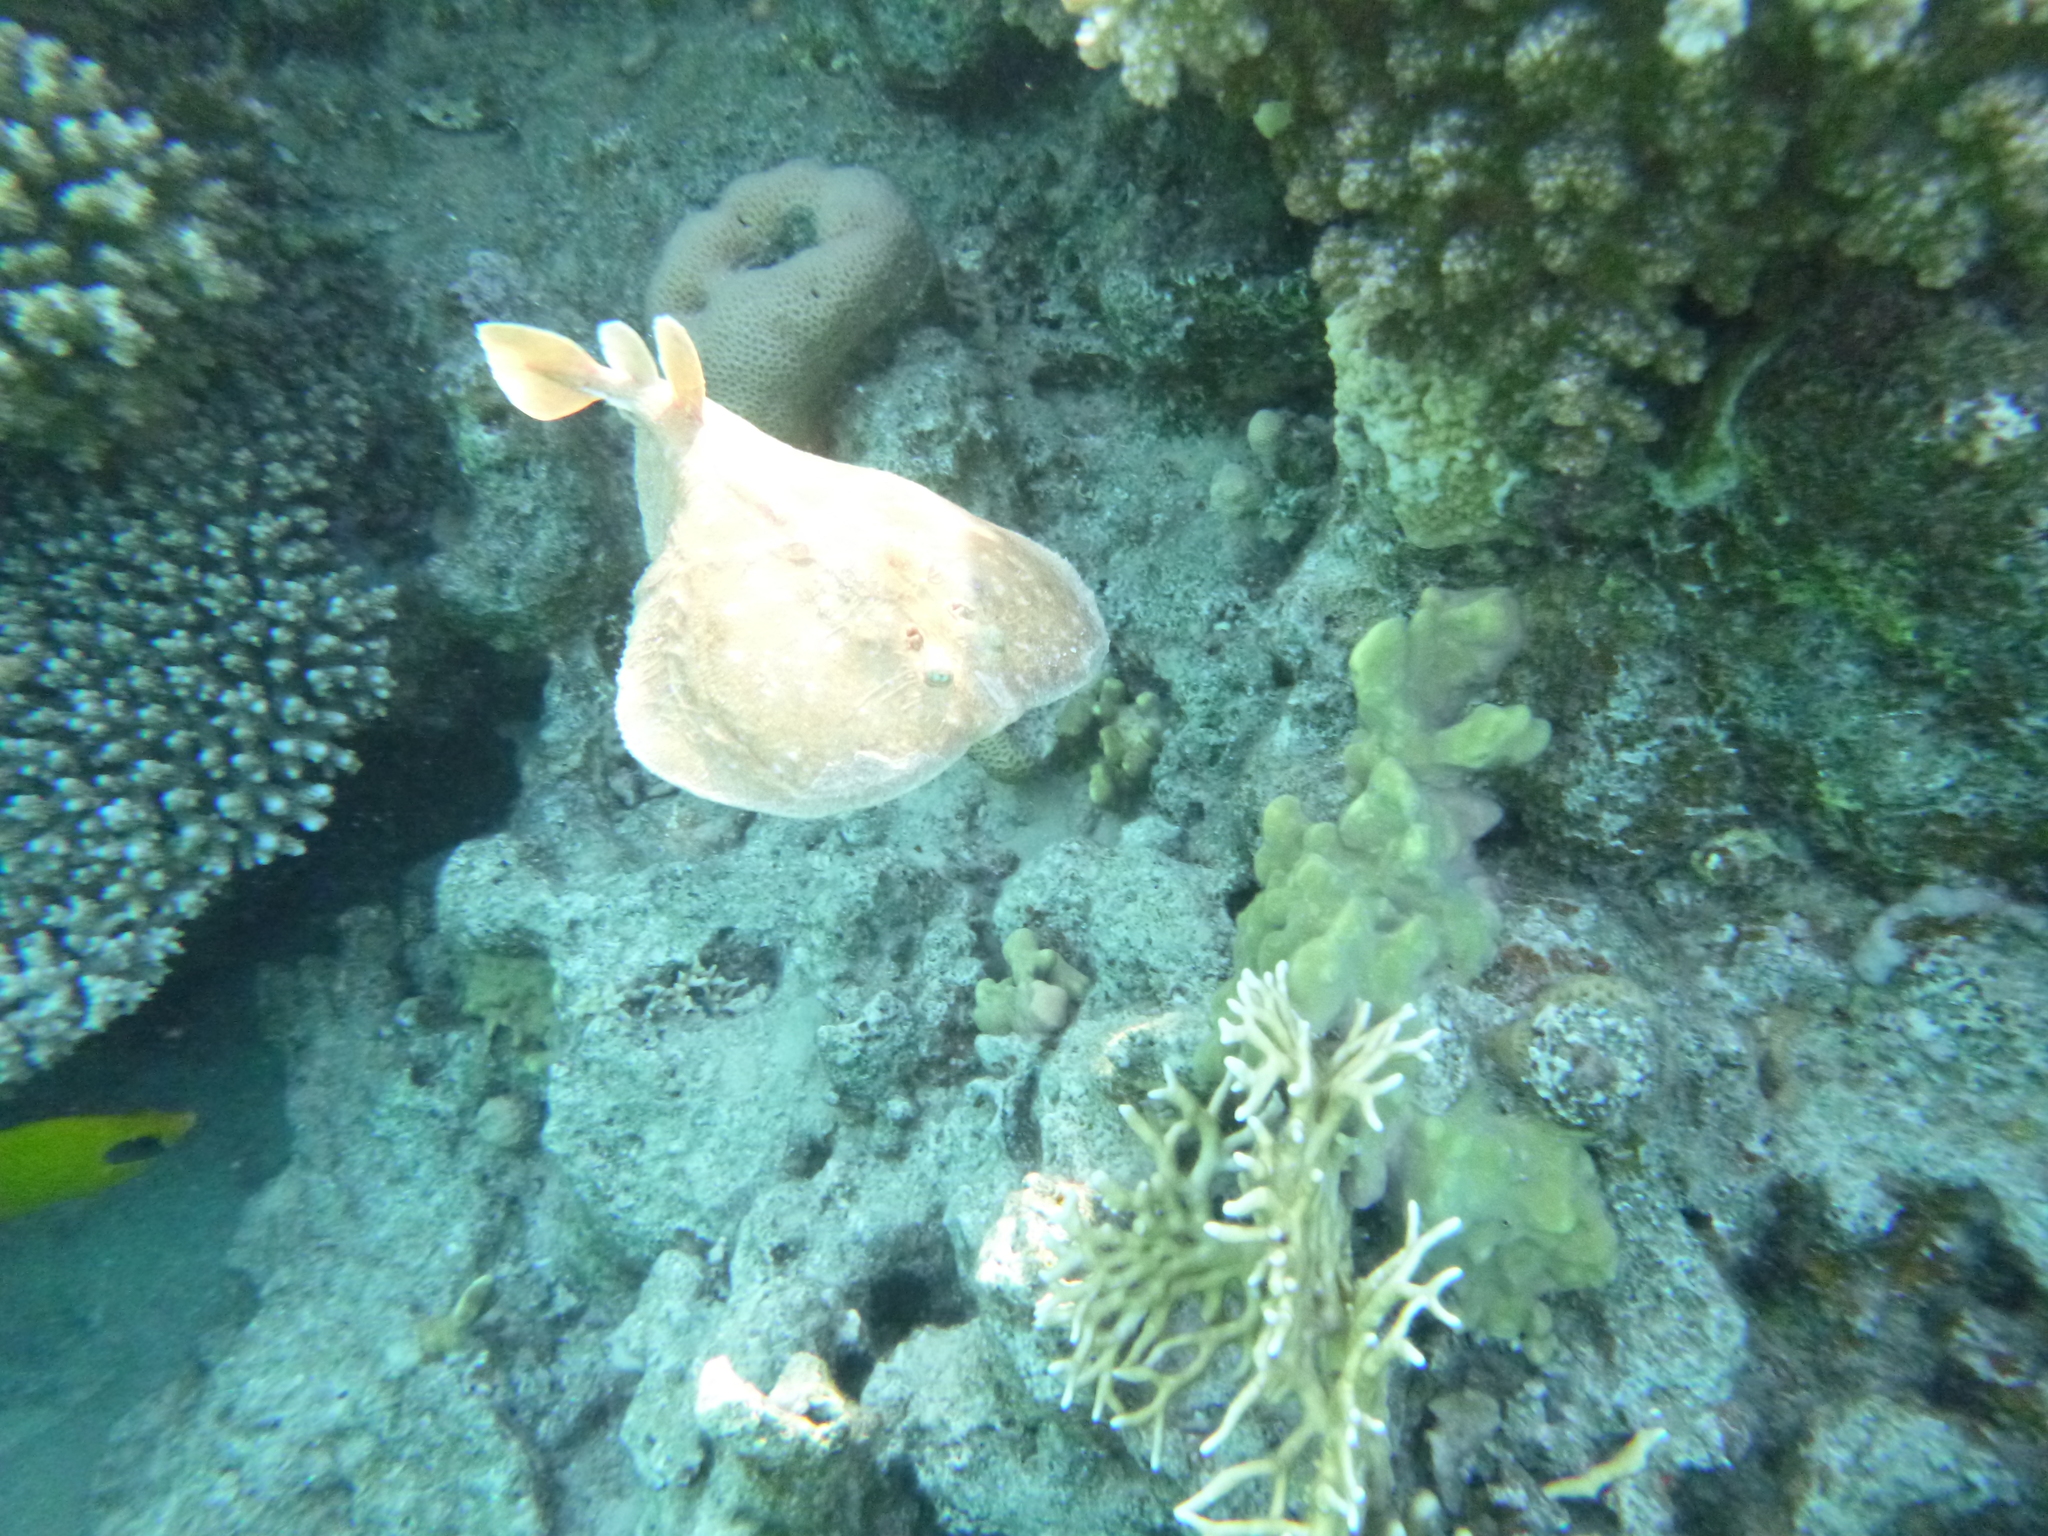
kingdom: Animalia
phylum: Chordata
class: Elasmobranchii
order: Torpediniformes
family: Torpedinidae
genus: Torpedo
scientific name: Torpedo panthera
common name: Leopard torpedo
